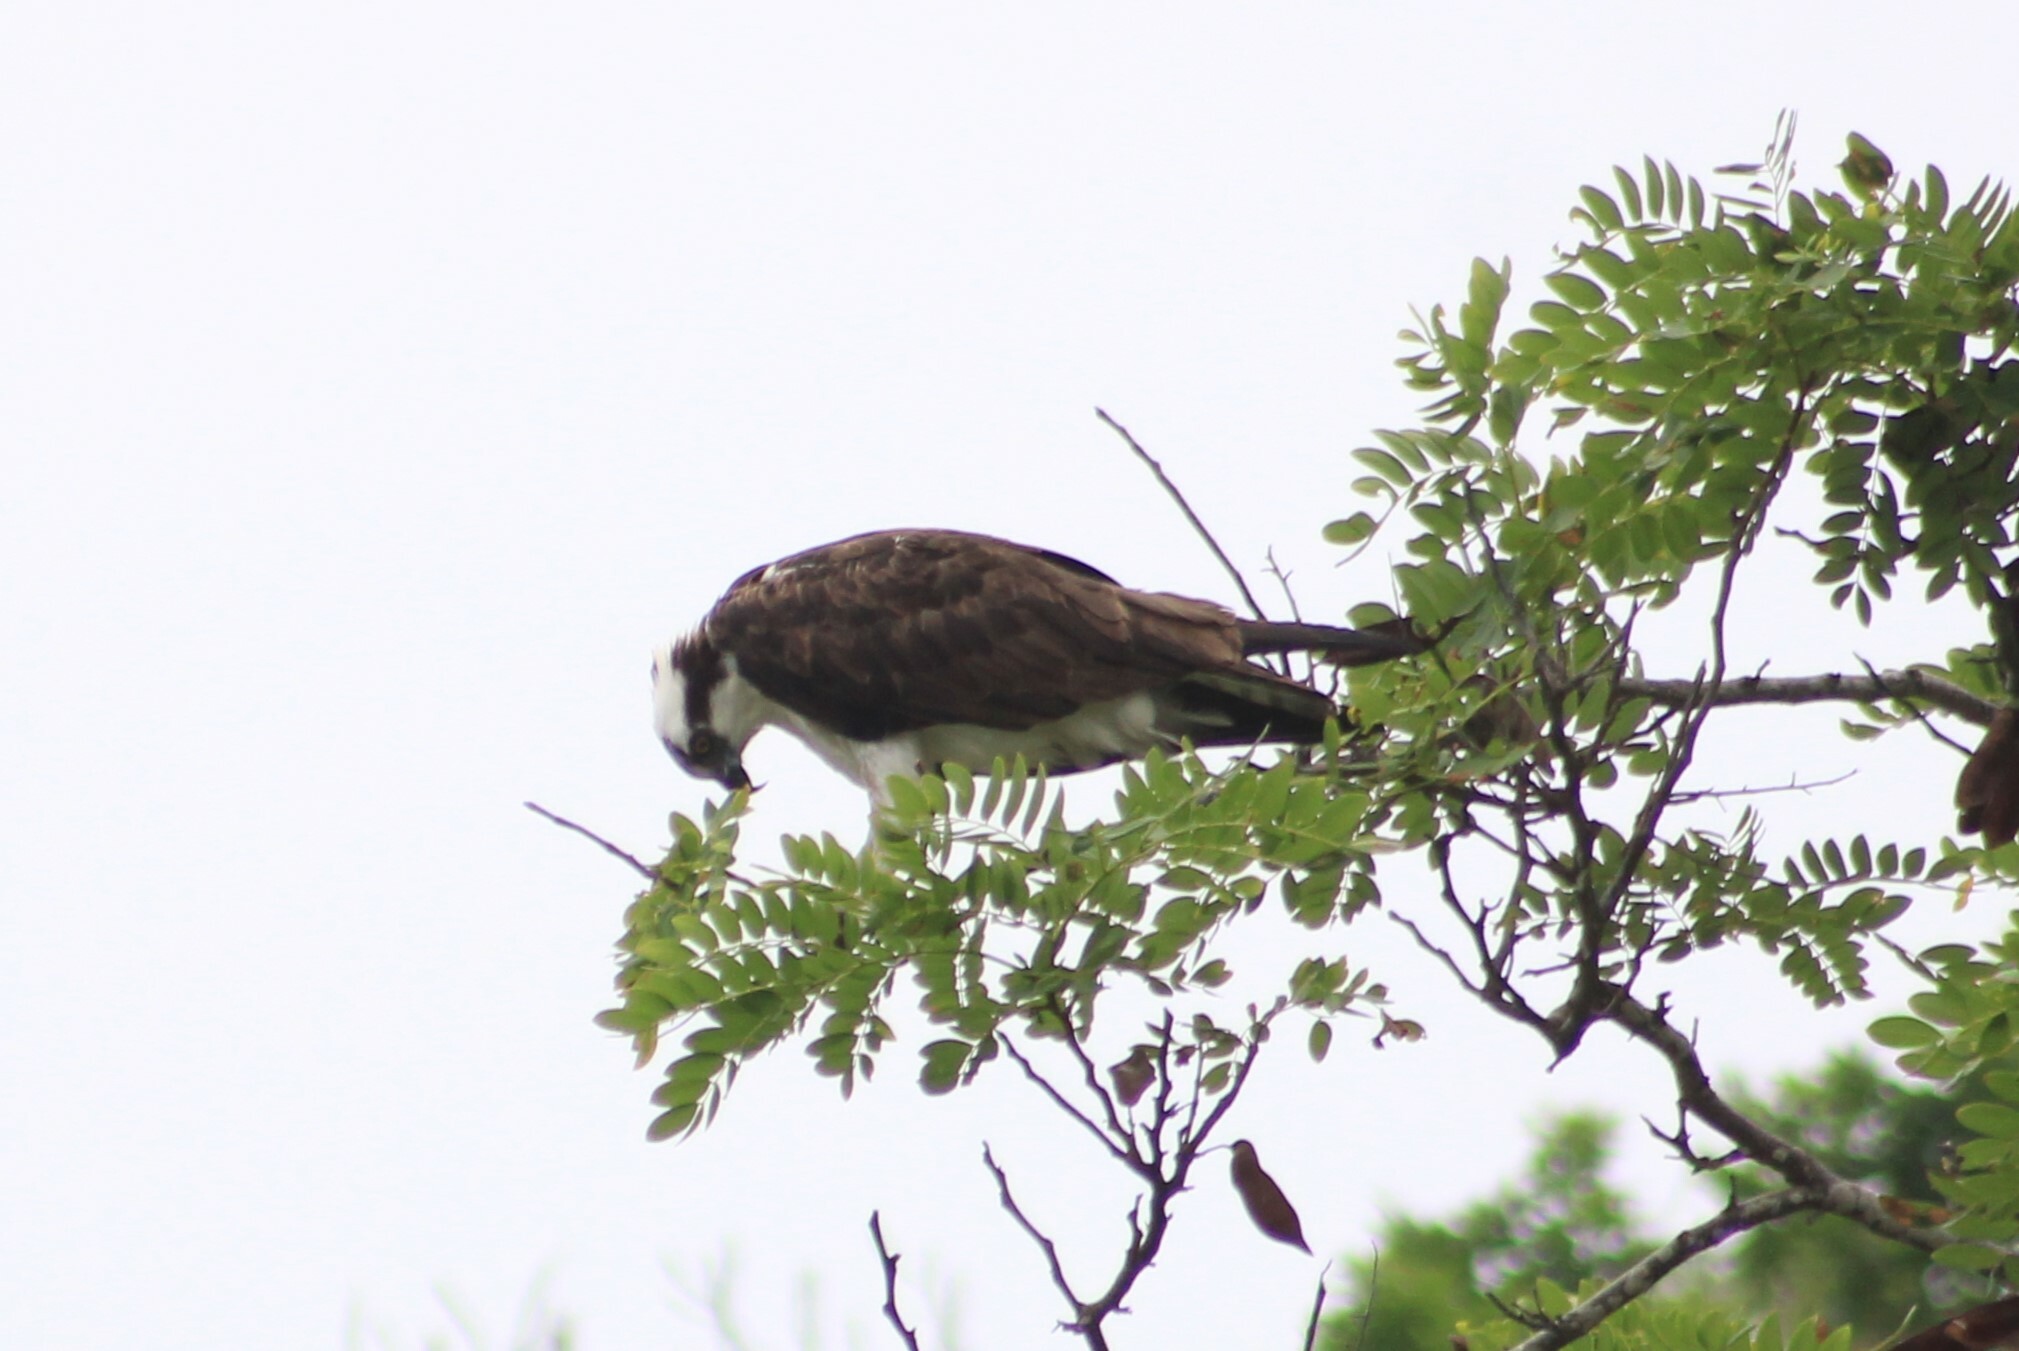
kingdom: Animalia
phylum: Chordata
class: Aves
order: Accipitriformes
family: Pandionidae
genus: Pandion
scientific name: Pandion haliaetus
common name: Osprey
